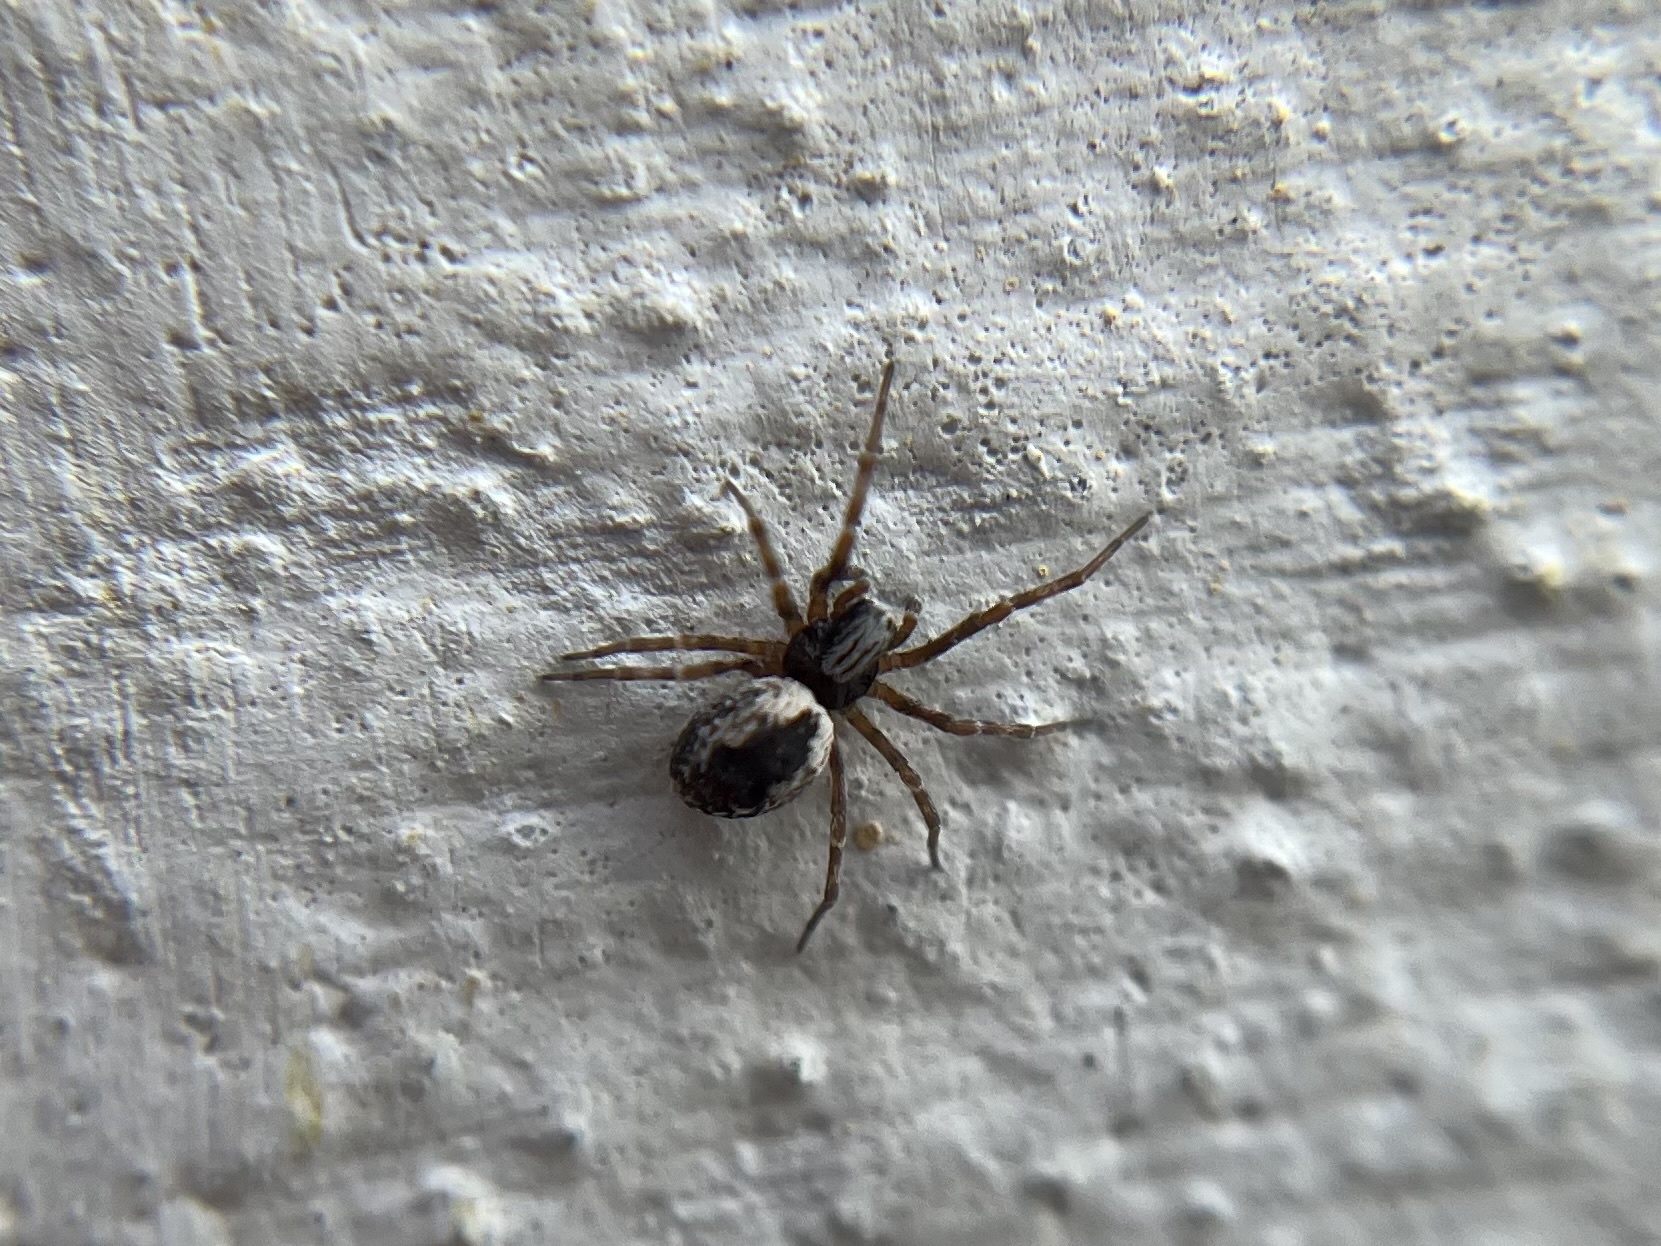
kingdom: Animalia
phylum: Arthropoda
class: Arachnida
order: Araneae
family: Dictynidae
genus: Brigittea
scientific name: Brigittea civica
